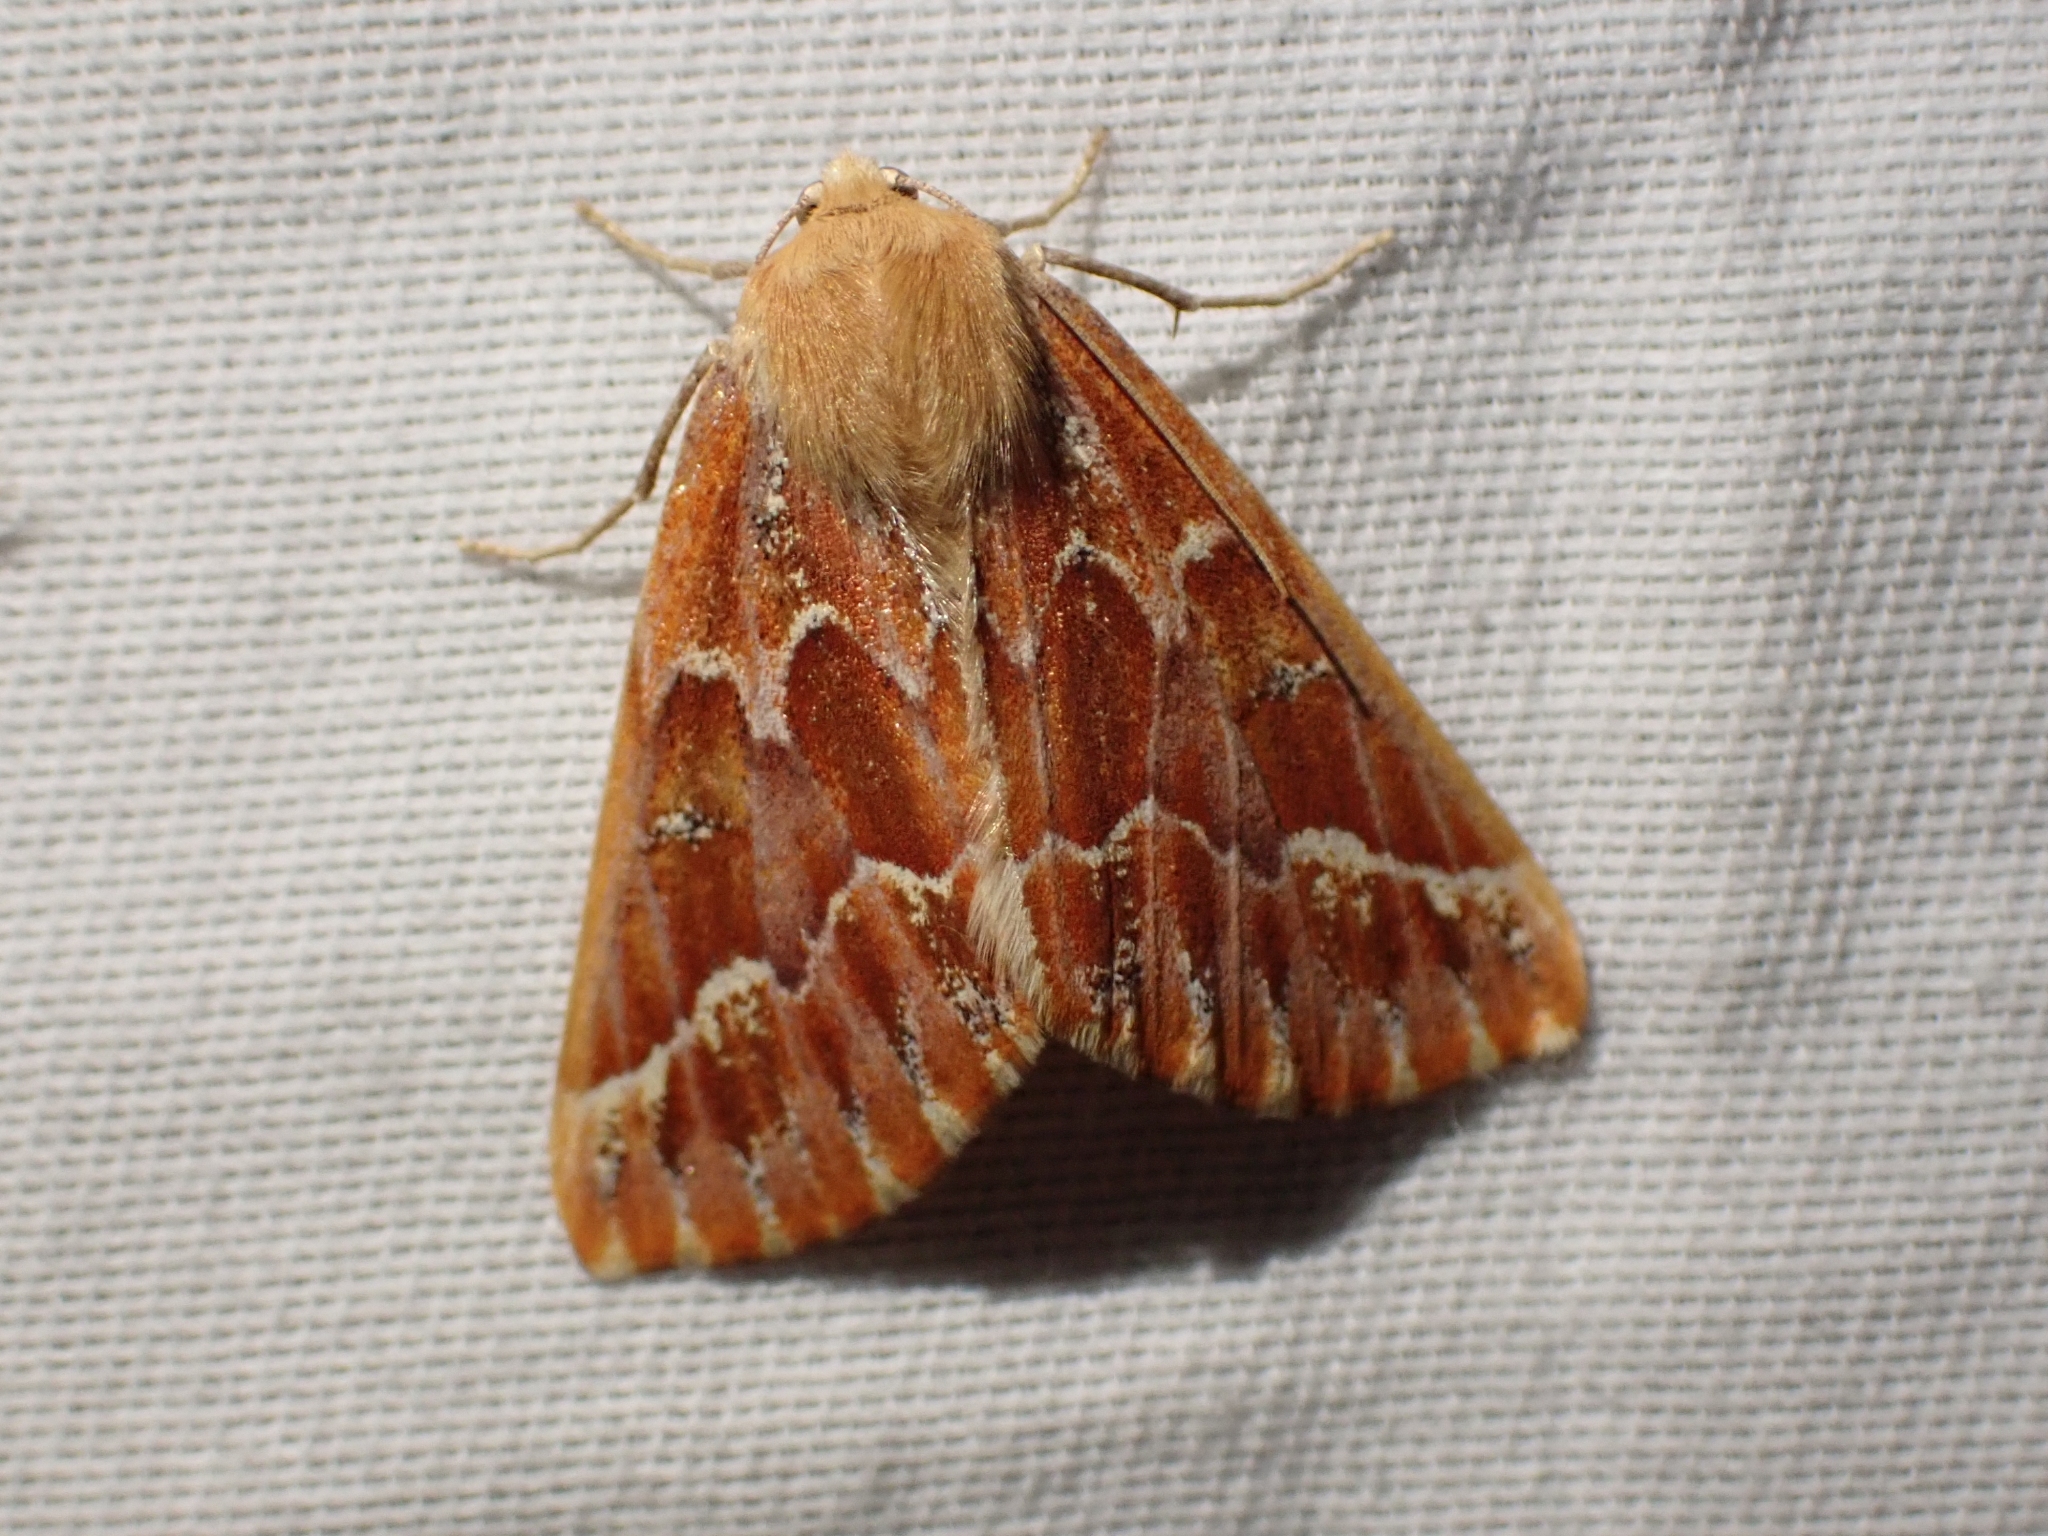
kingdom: Animalia
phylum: Arthropoda
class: Insecta
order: Lepidoptera
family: Geometridae
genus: Caripeta
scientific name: Caripeta aequaliaria
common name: Red girdle moth
